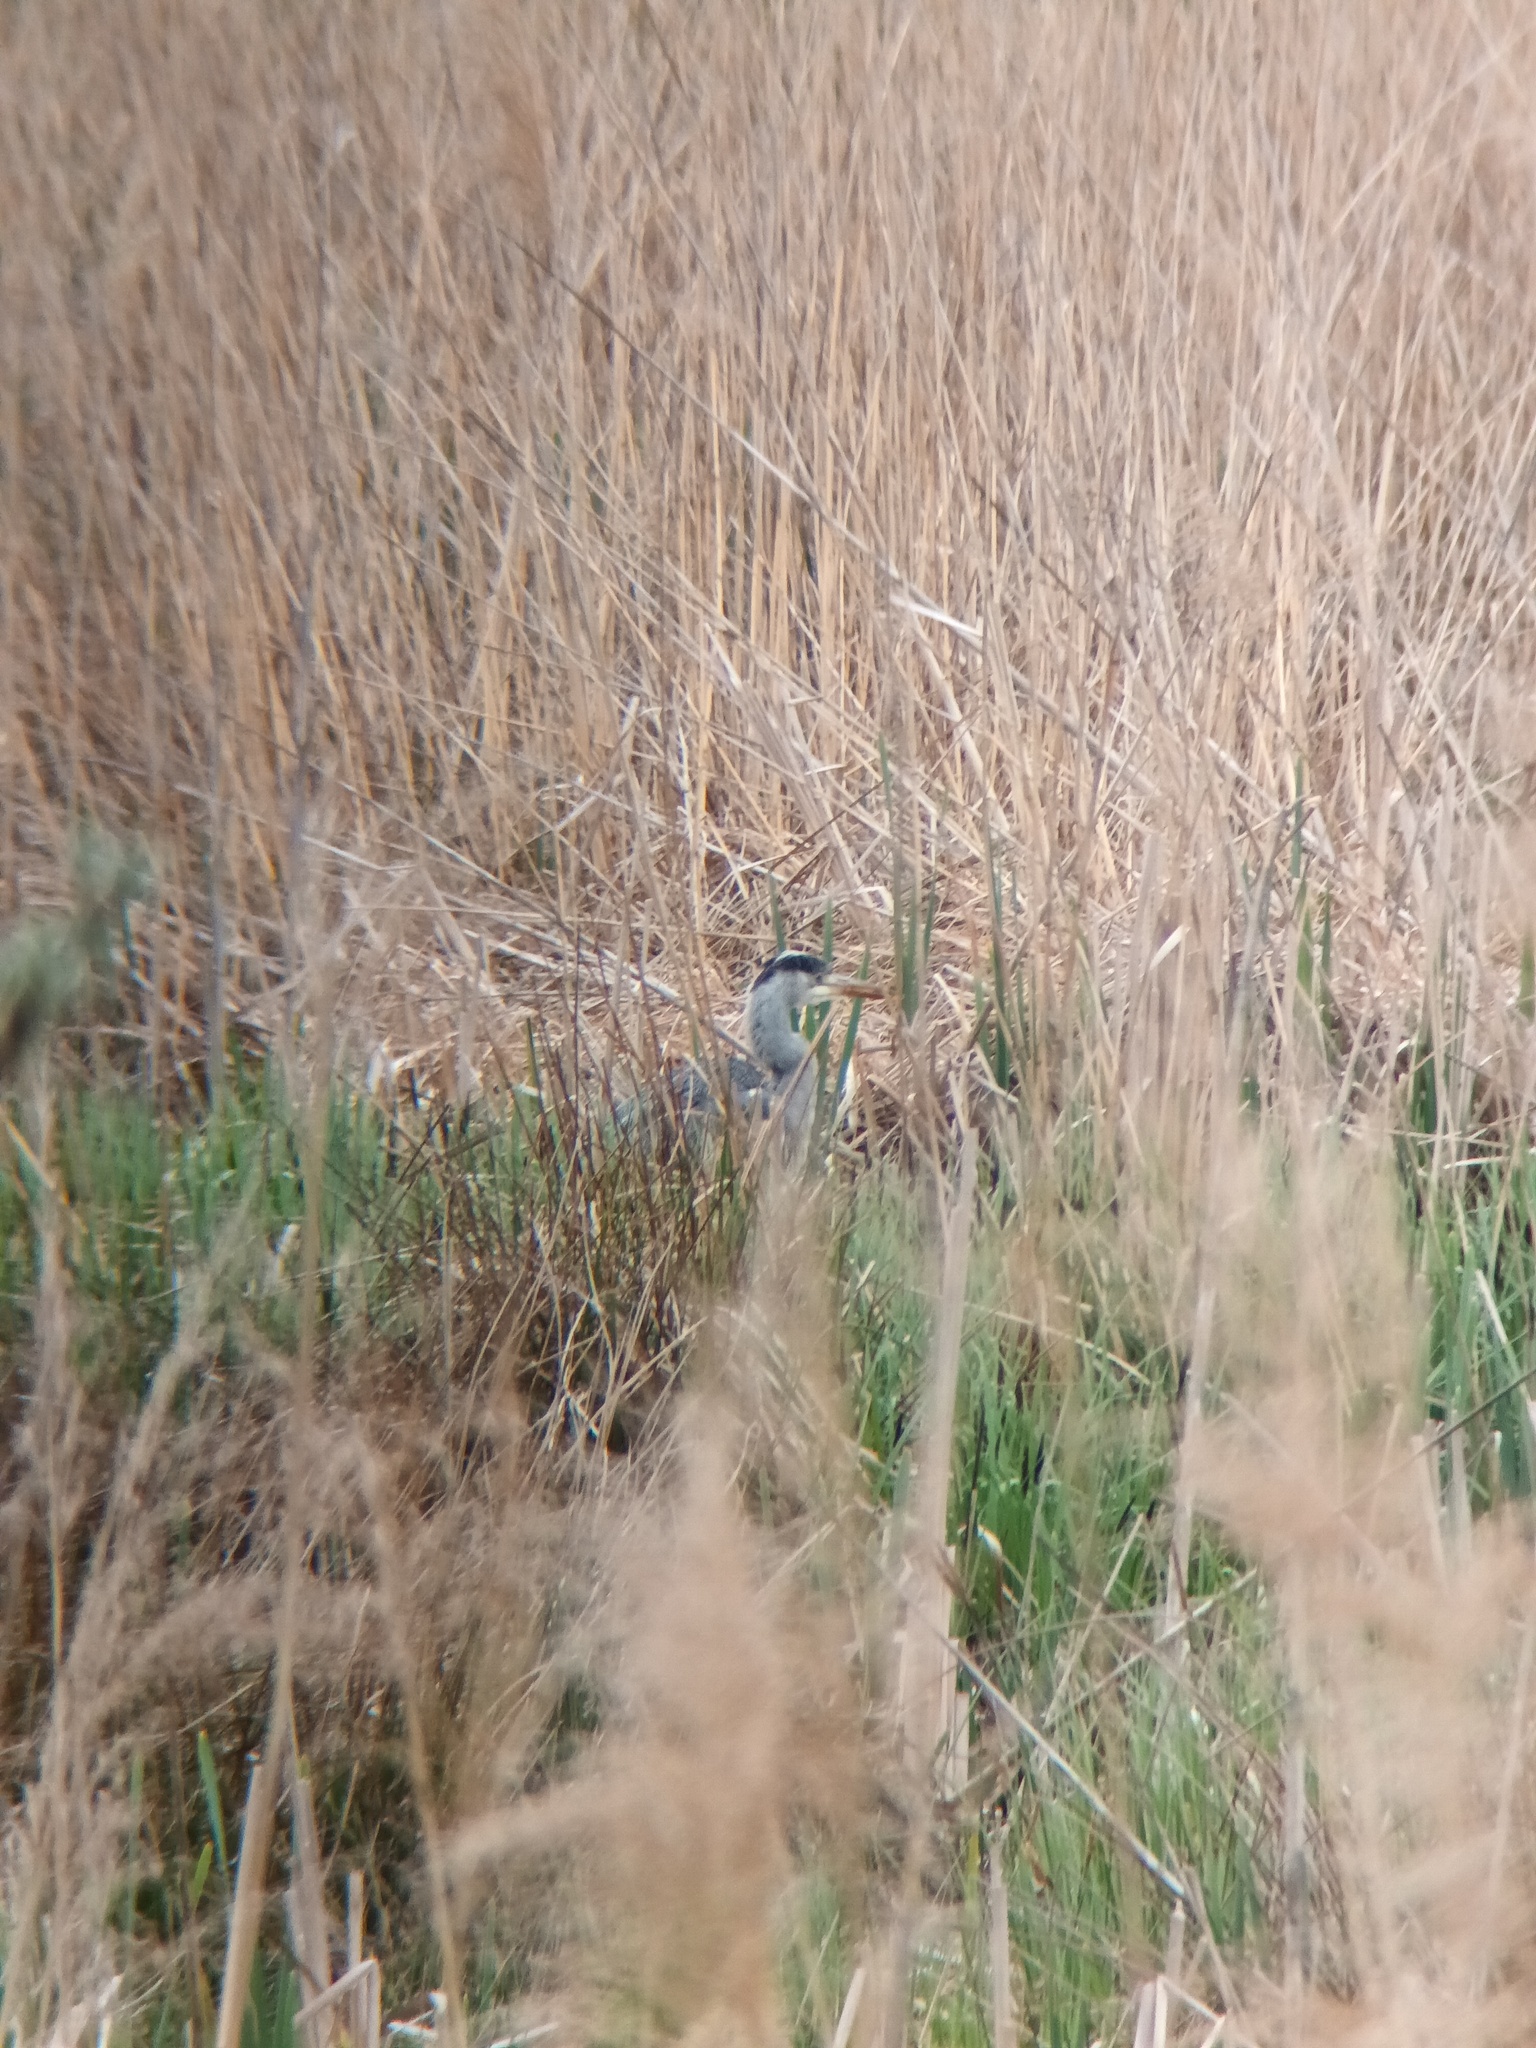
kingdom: Animalia
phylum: Chordata
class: Aves
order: Pelecaniformes
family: Ardeidae
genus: Ardea
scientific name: Ardea cinerea
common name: Grey heron
